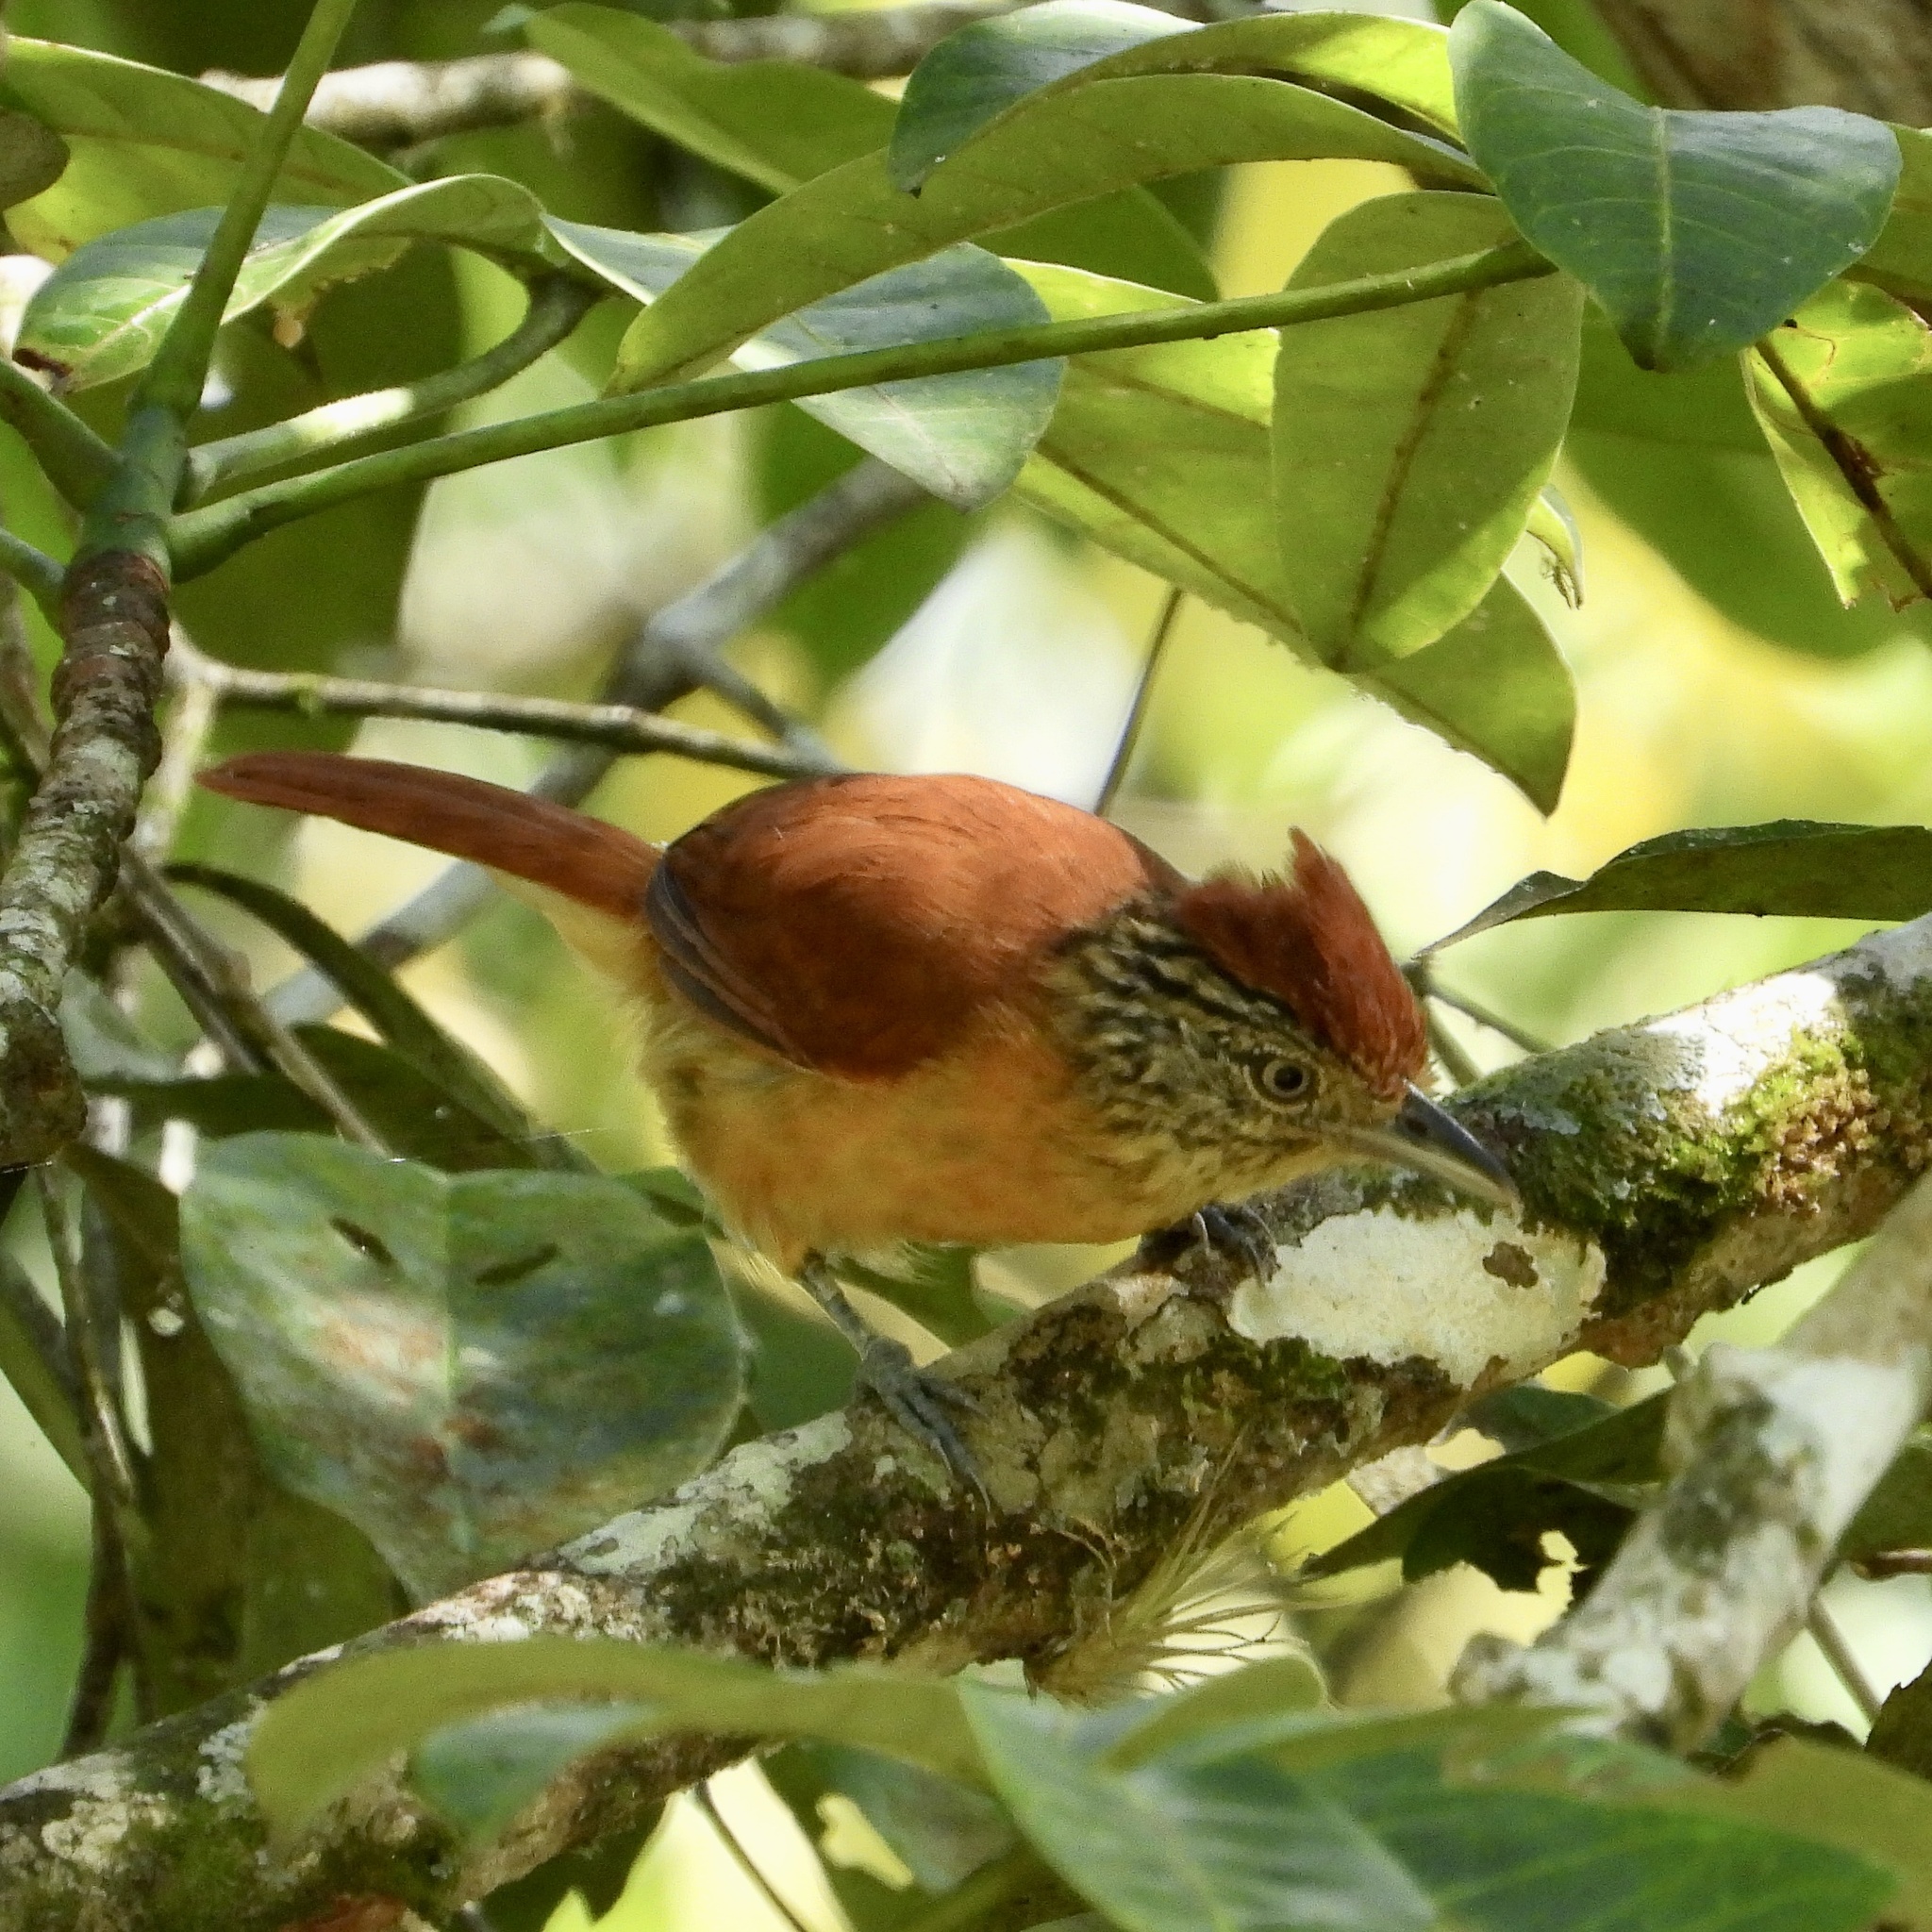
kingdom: Animalia
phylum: Chordata
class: Aves
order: Passeriformes
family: Thamnophilidae
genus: Thamnophilus
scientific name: Thamnophilus doliatus
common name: Barred antshrike
